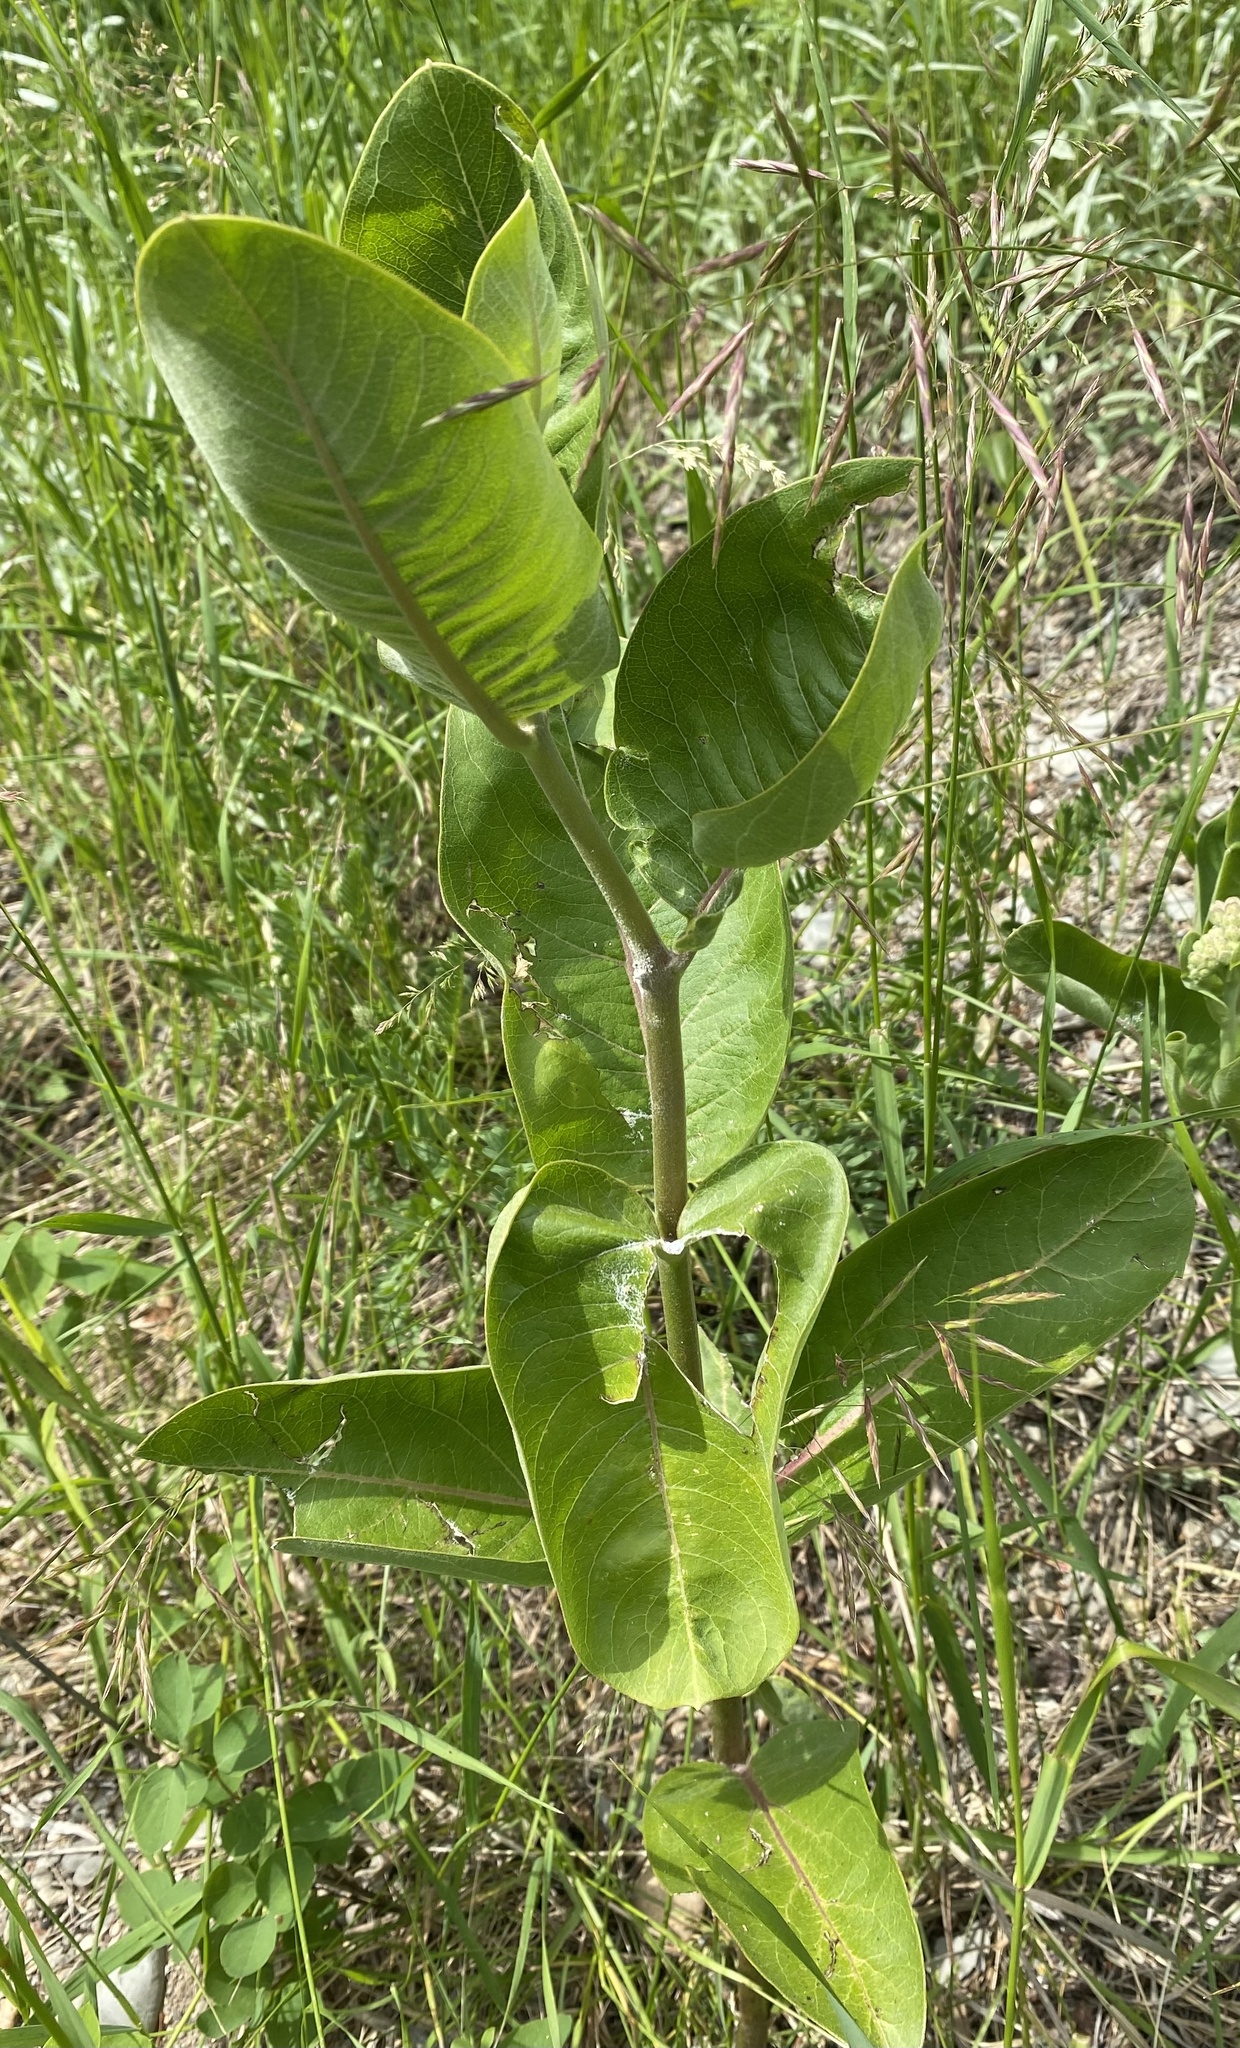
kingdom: Plantae
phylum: Tracheophyta
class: Magnoliopsida
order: Gentianales
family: Apocynaceae
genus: Asclepias
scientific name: Asclepias speciosa
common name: Showy milkweed
